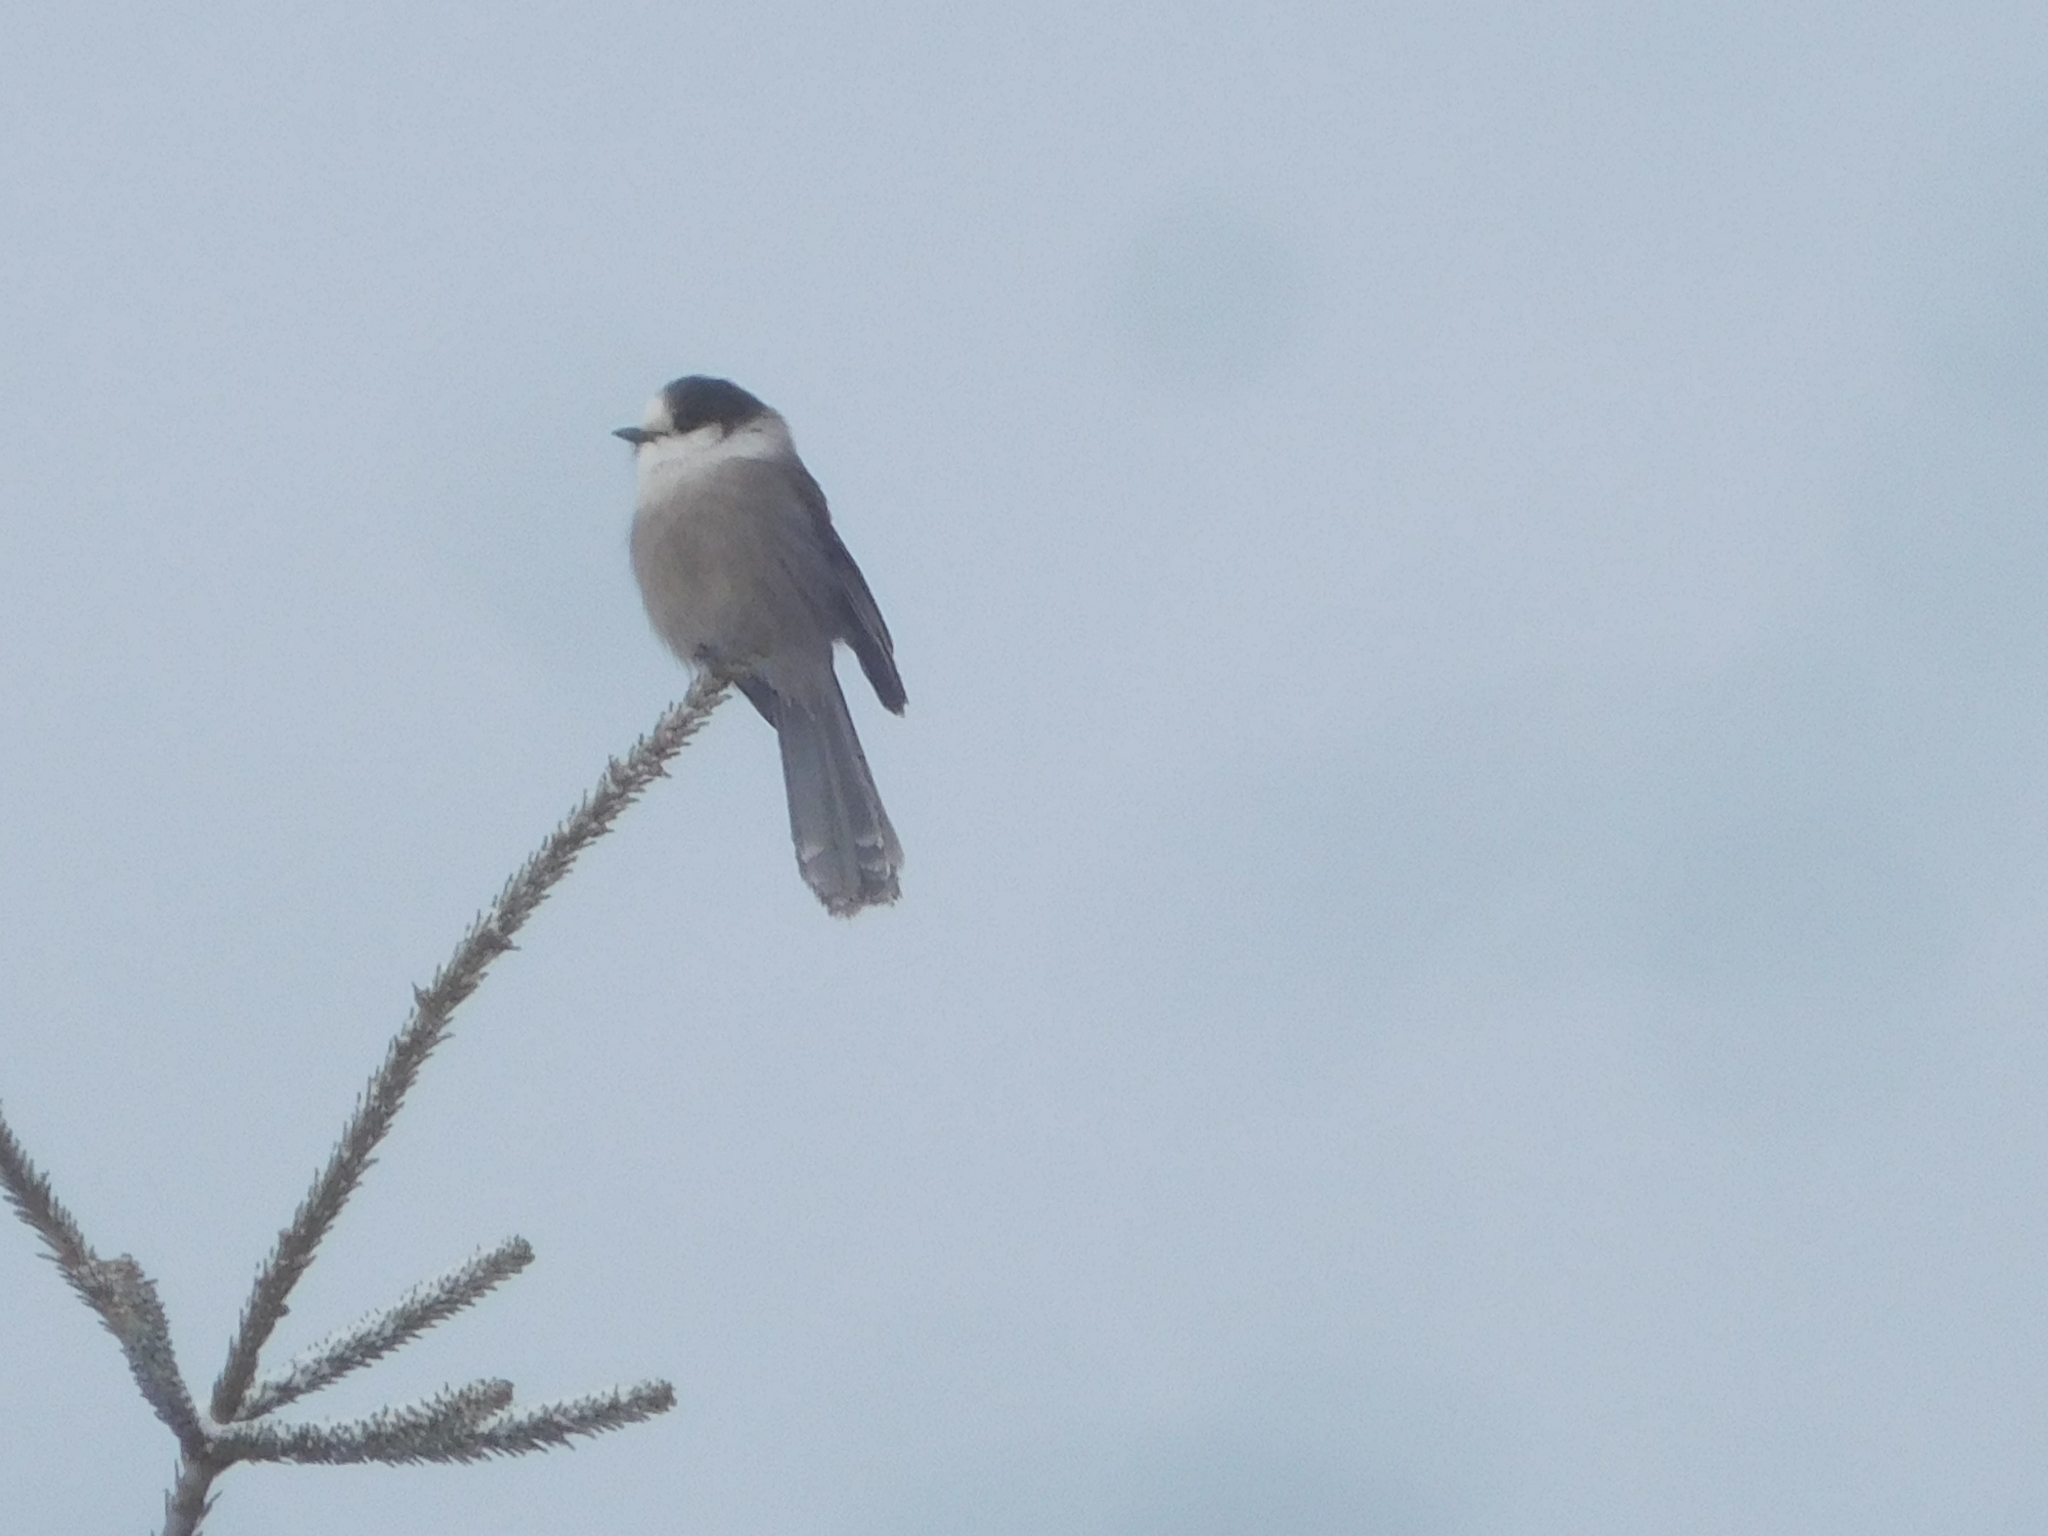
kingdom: Animalia
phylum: Chordata
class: Aves
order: Passeriformes
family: Corvidae
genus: Perisoreus
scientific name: Perisoreus canadensis
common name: Gray jay
